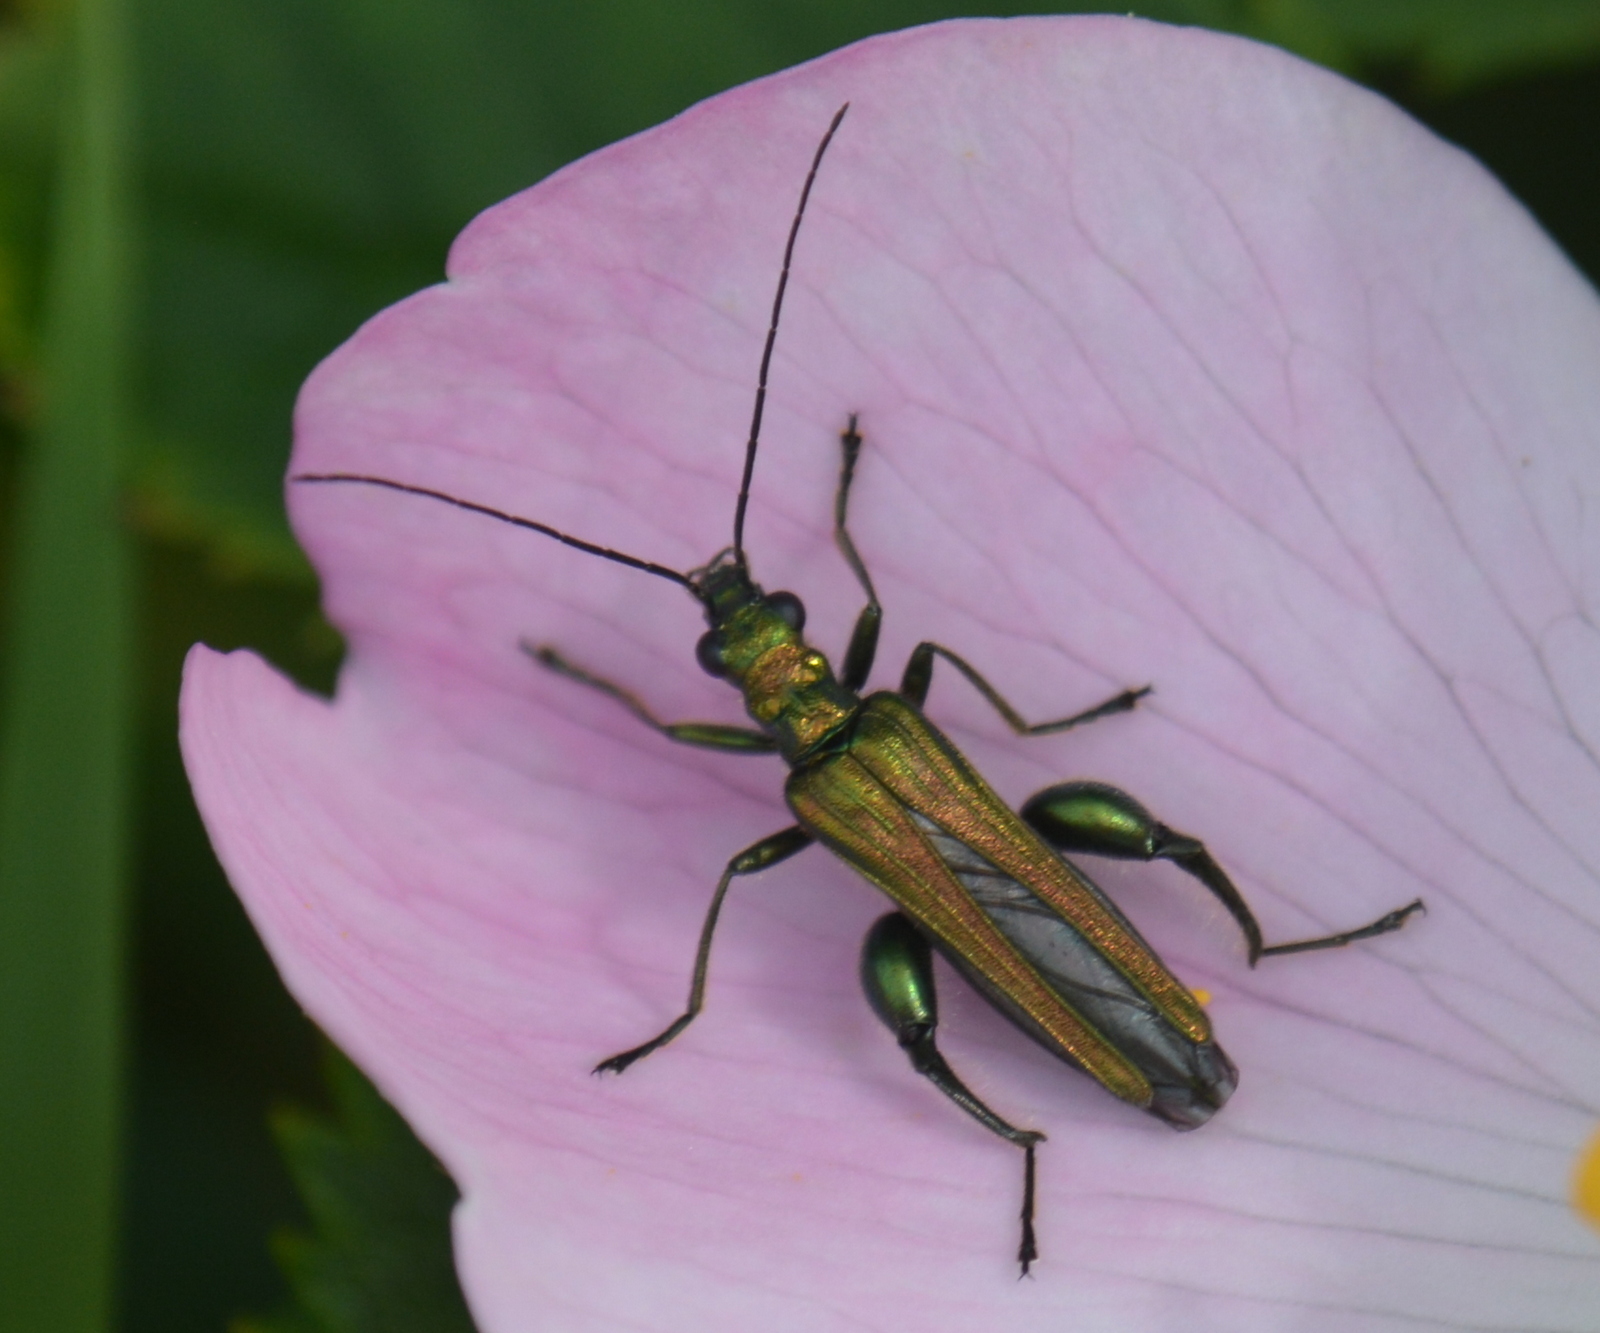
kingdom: Animalia
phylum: Arthropoda
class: Insecta
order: Coleoptera
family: Oedemeridae
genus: Oedemera
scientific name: Oedemera nobilis
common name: Swollen-thighed beetle
